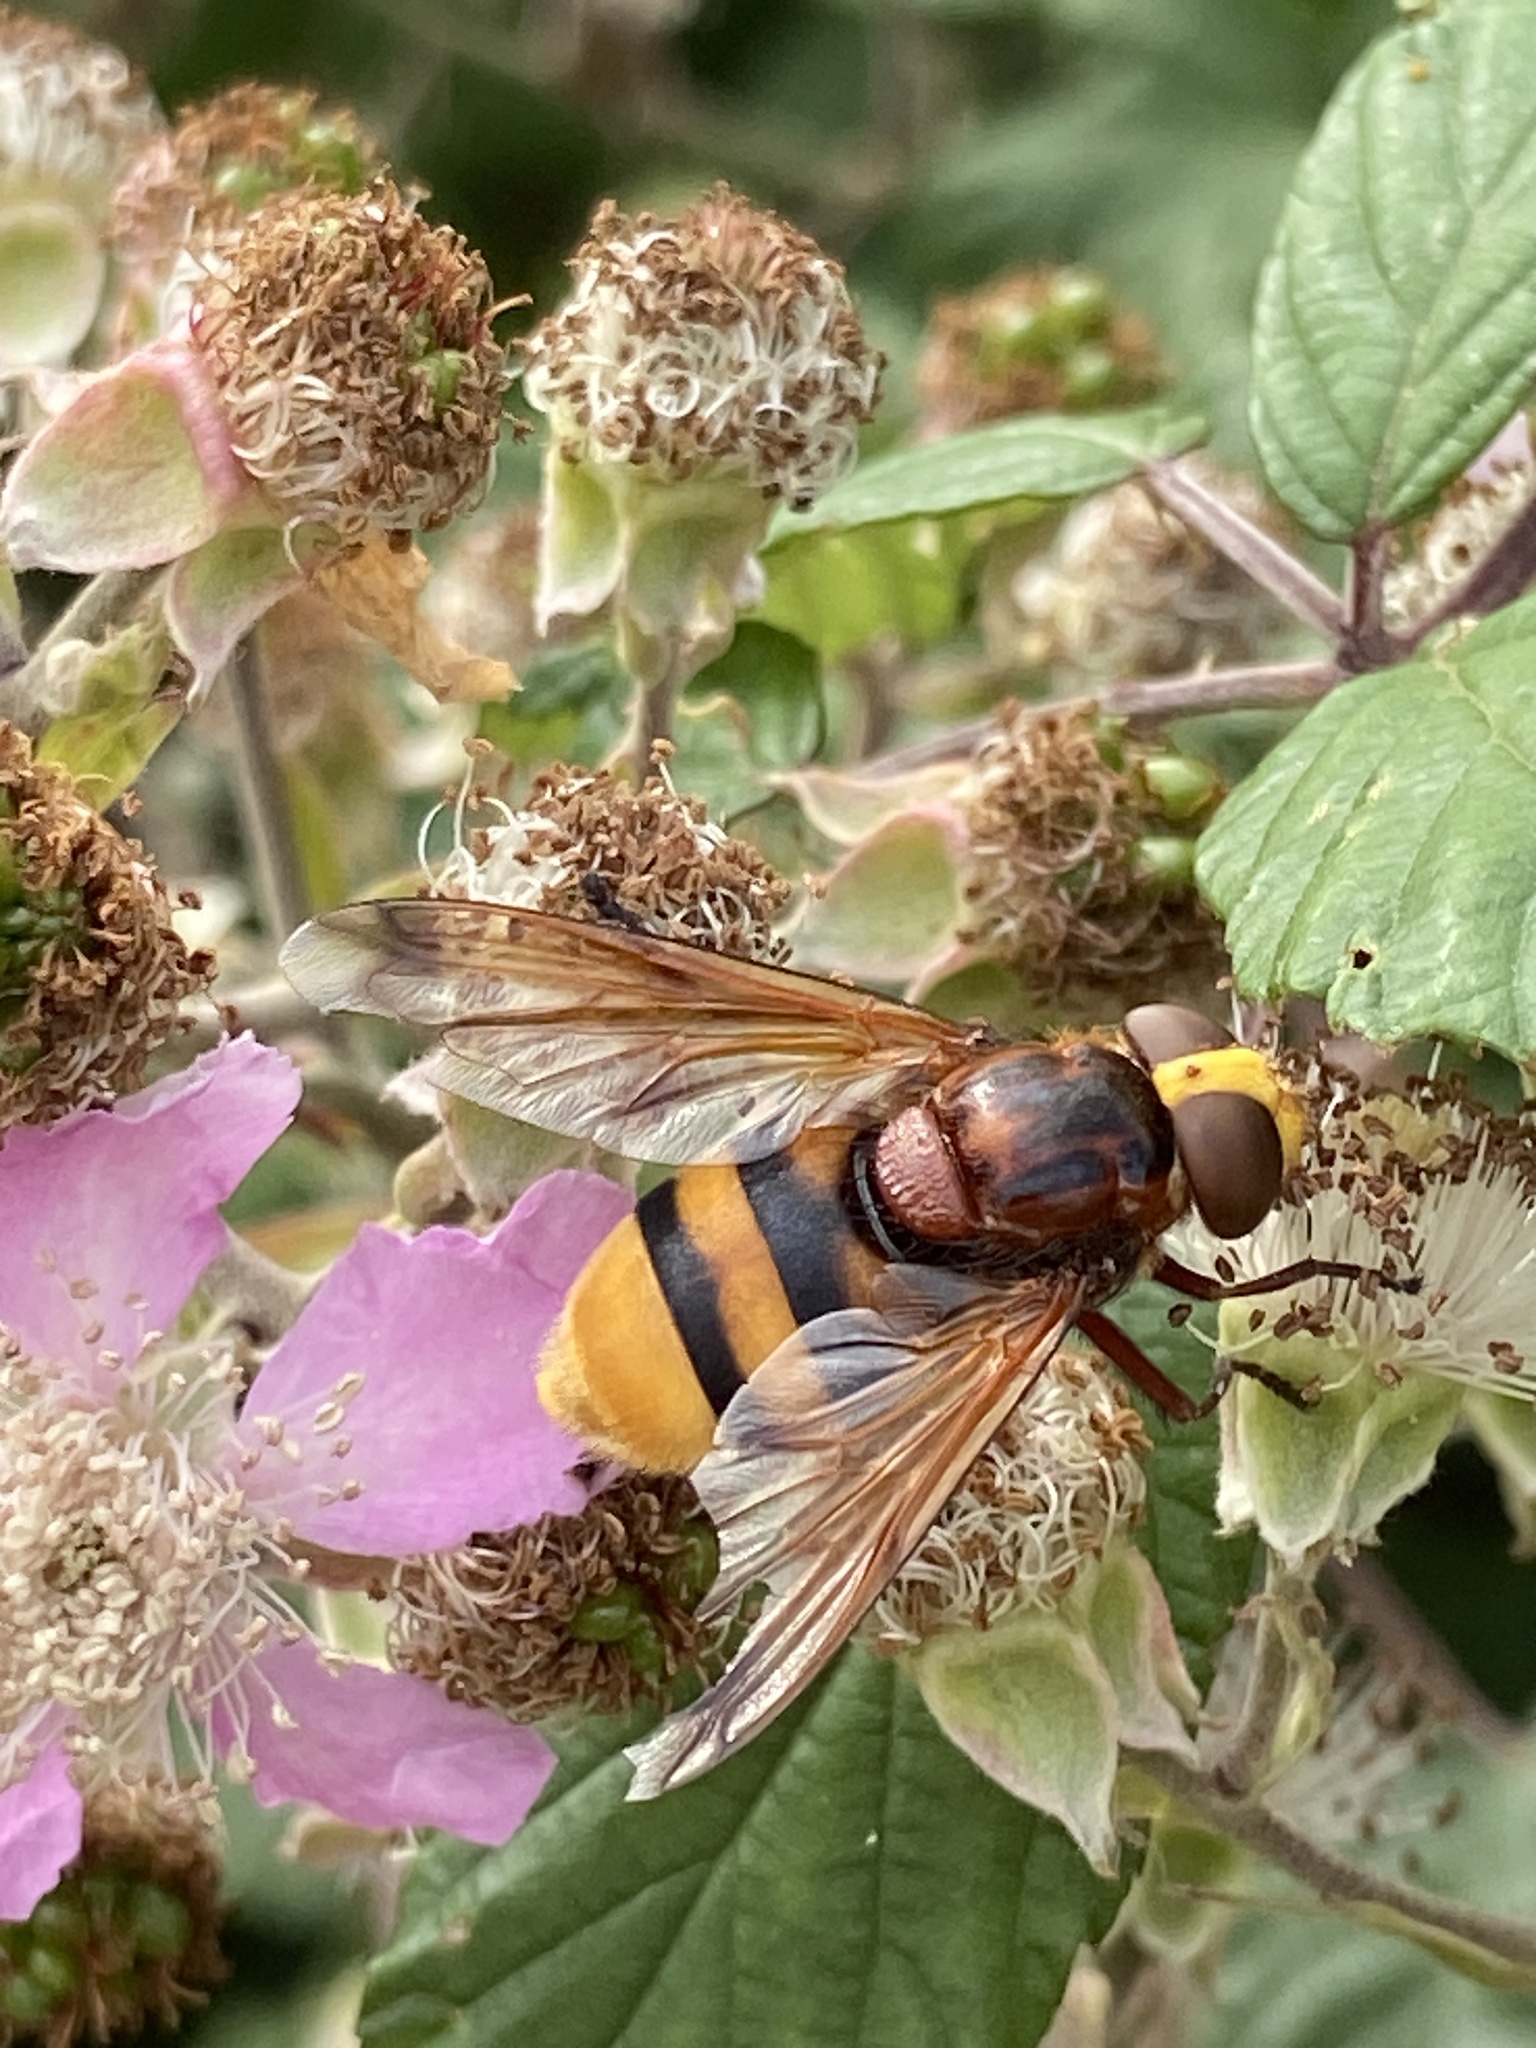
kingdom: Animalia
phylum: Arthropoda
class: Insecta
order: Diptera
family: Syrphidae
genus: Volucella
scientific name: Volucella zonaria
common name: Hornet hoverfly
